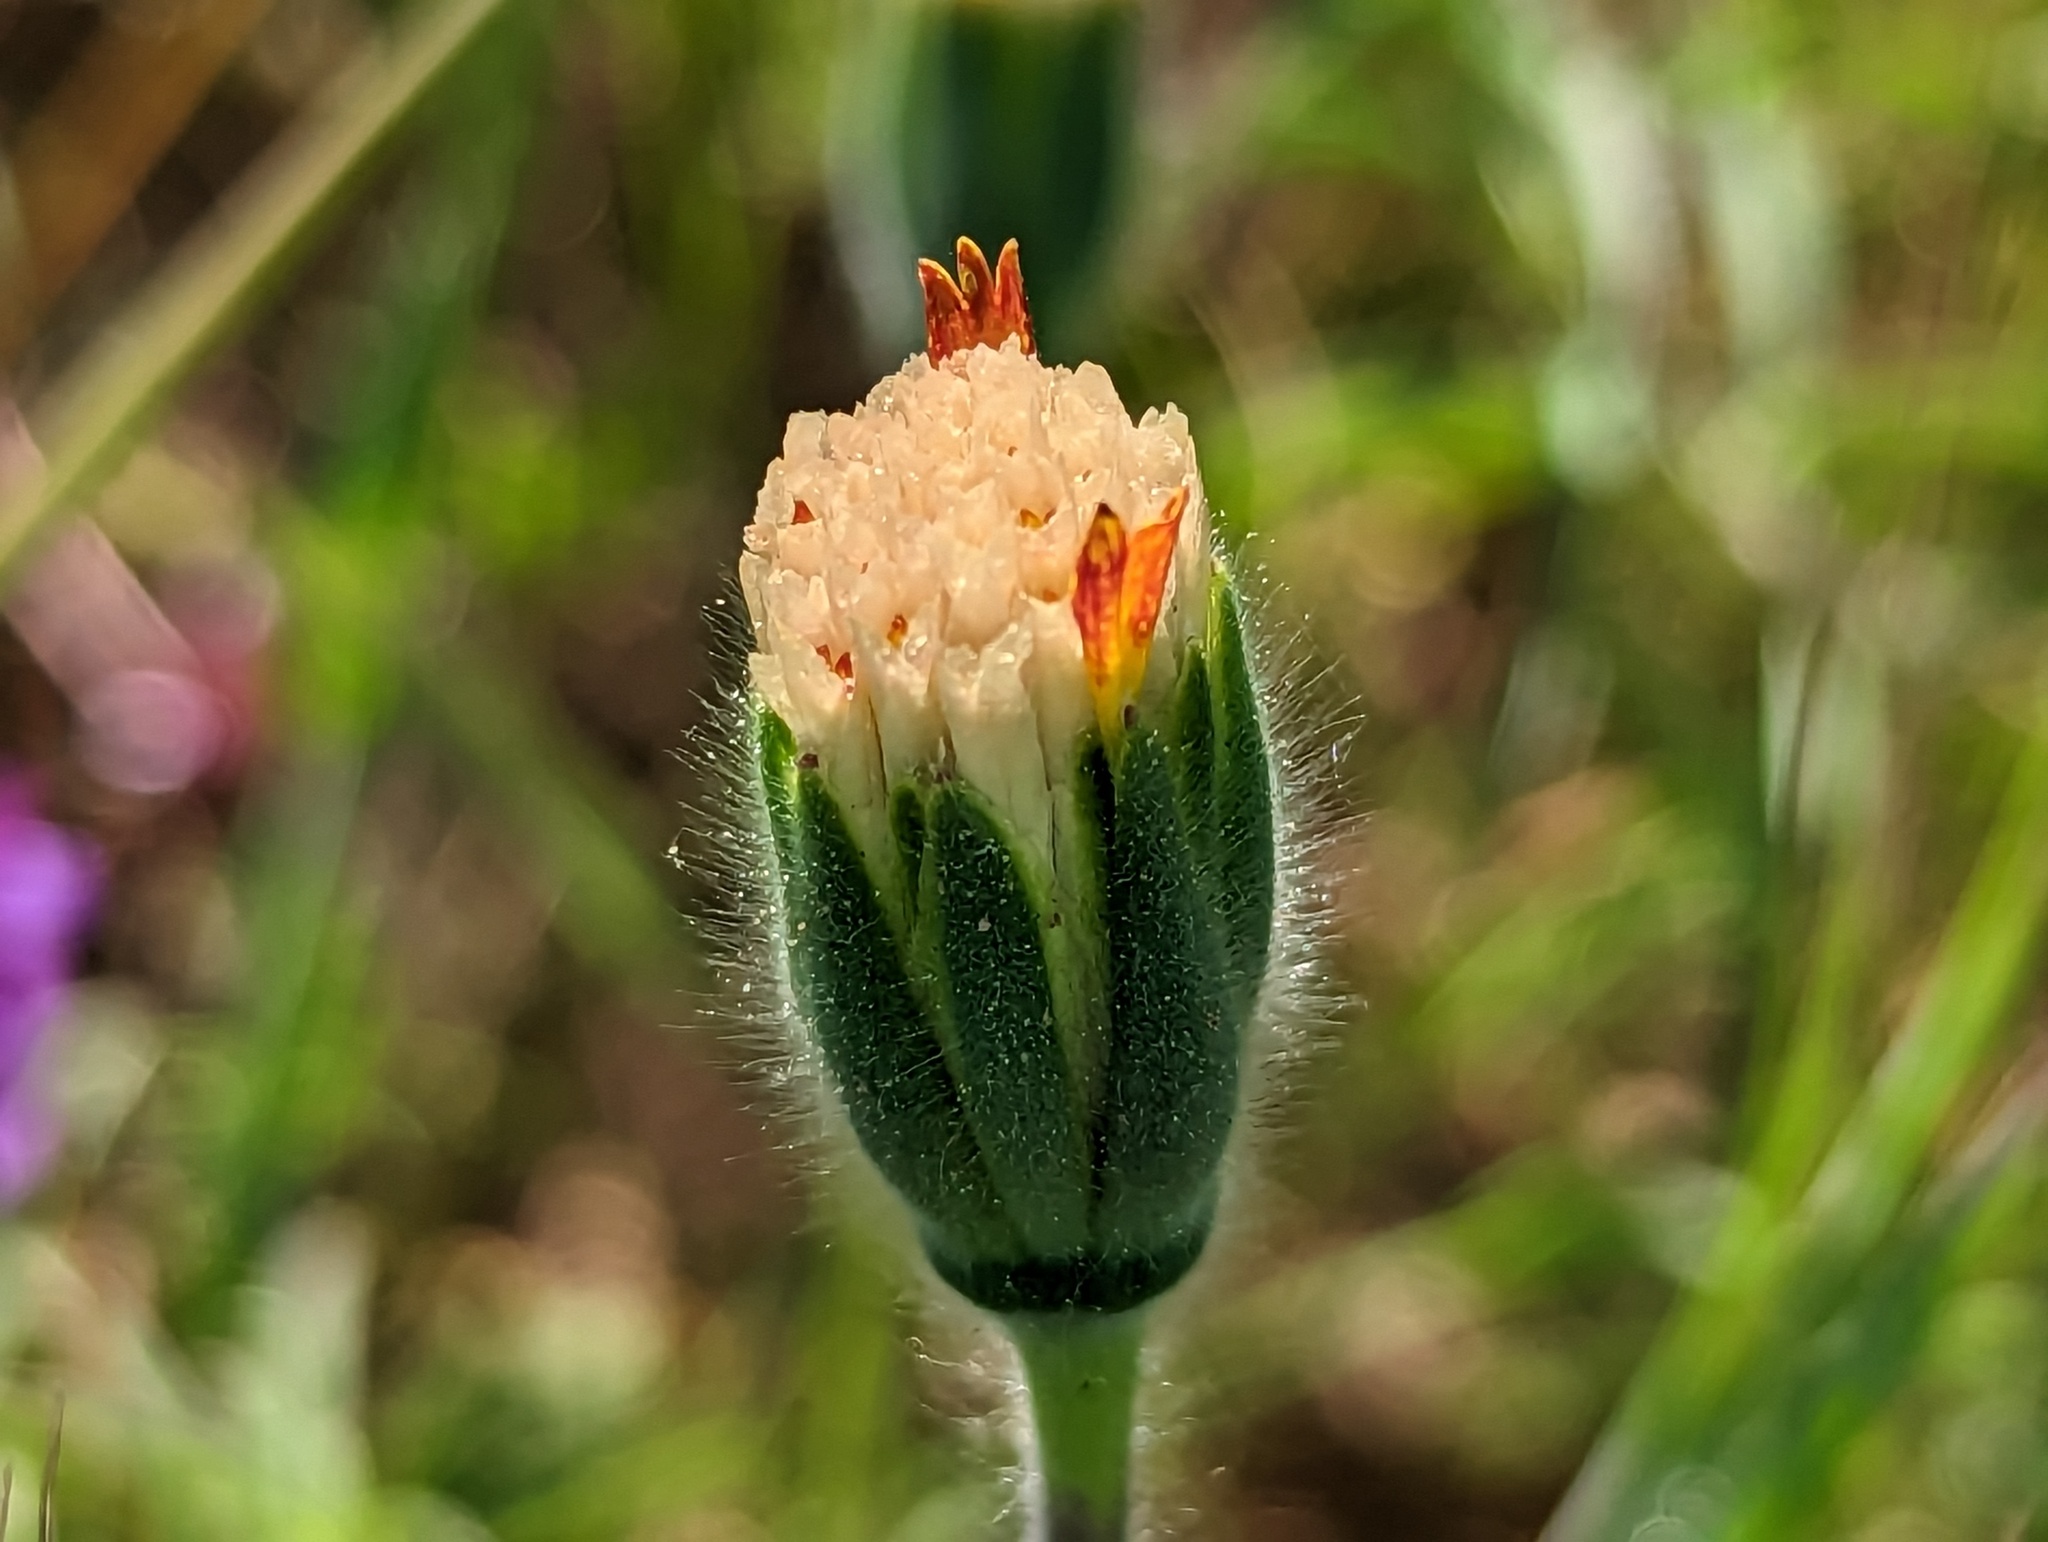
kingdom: Plantae
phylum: Tracheophyta
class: Magnoliopsida
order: Asterales
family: Asteraceae
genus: Achyrachaena
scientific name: Achyrachaena mollis
